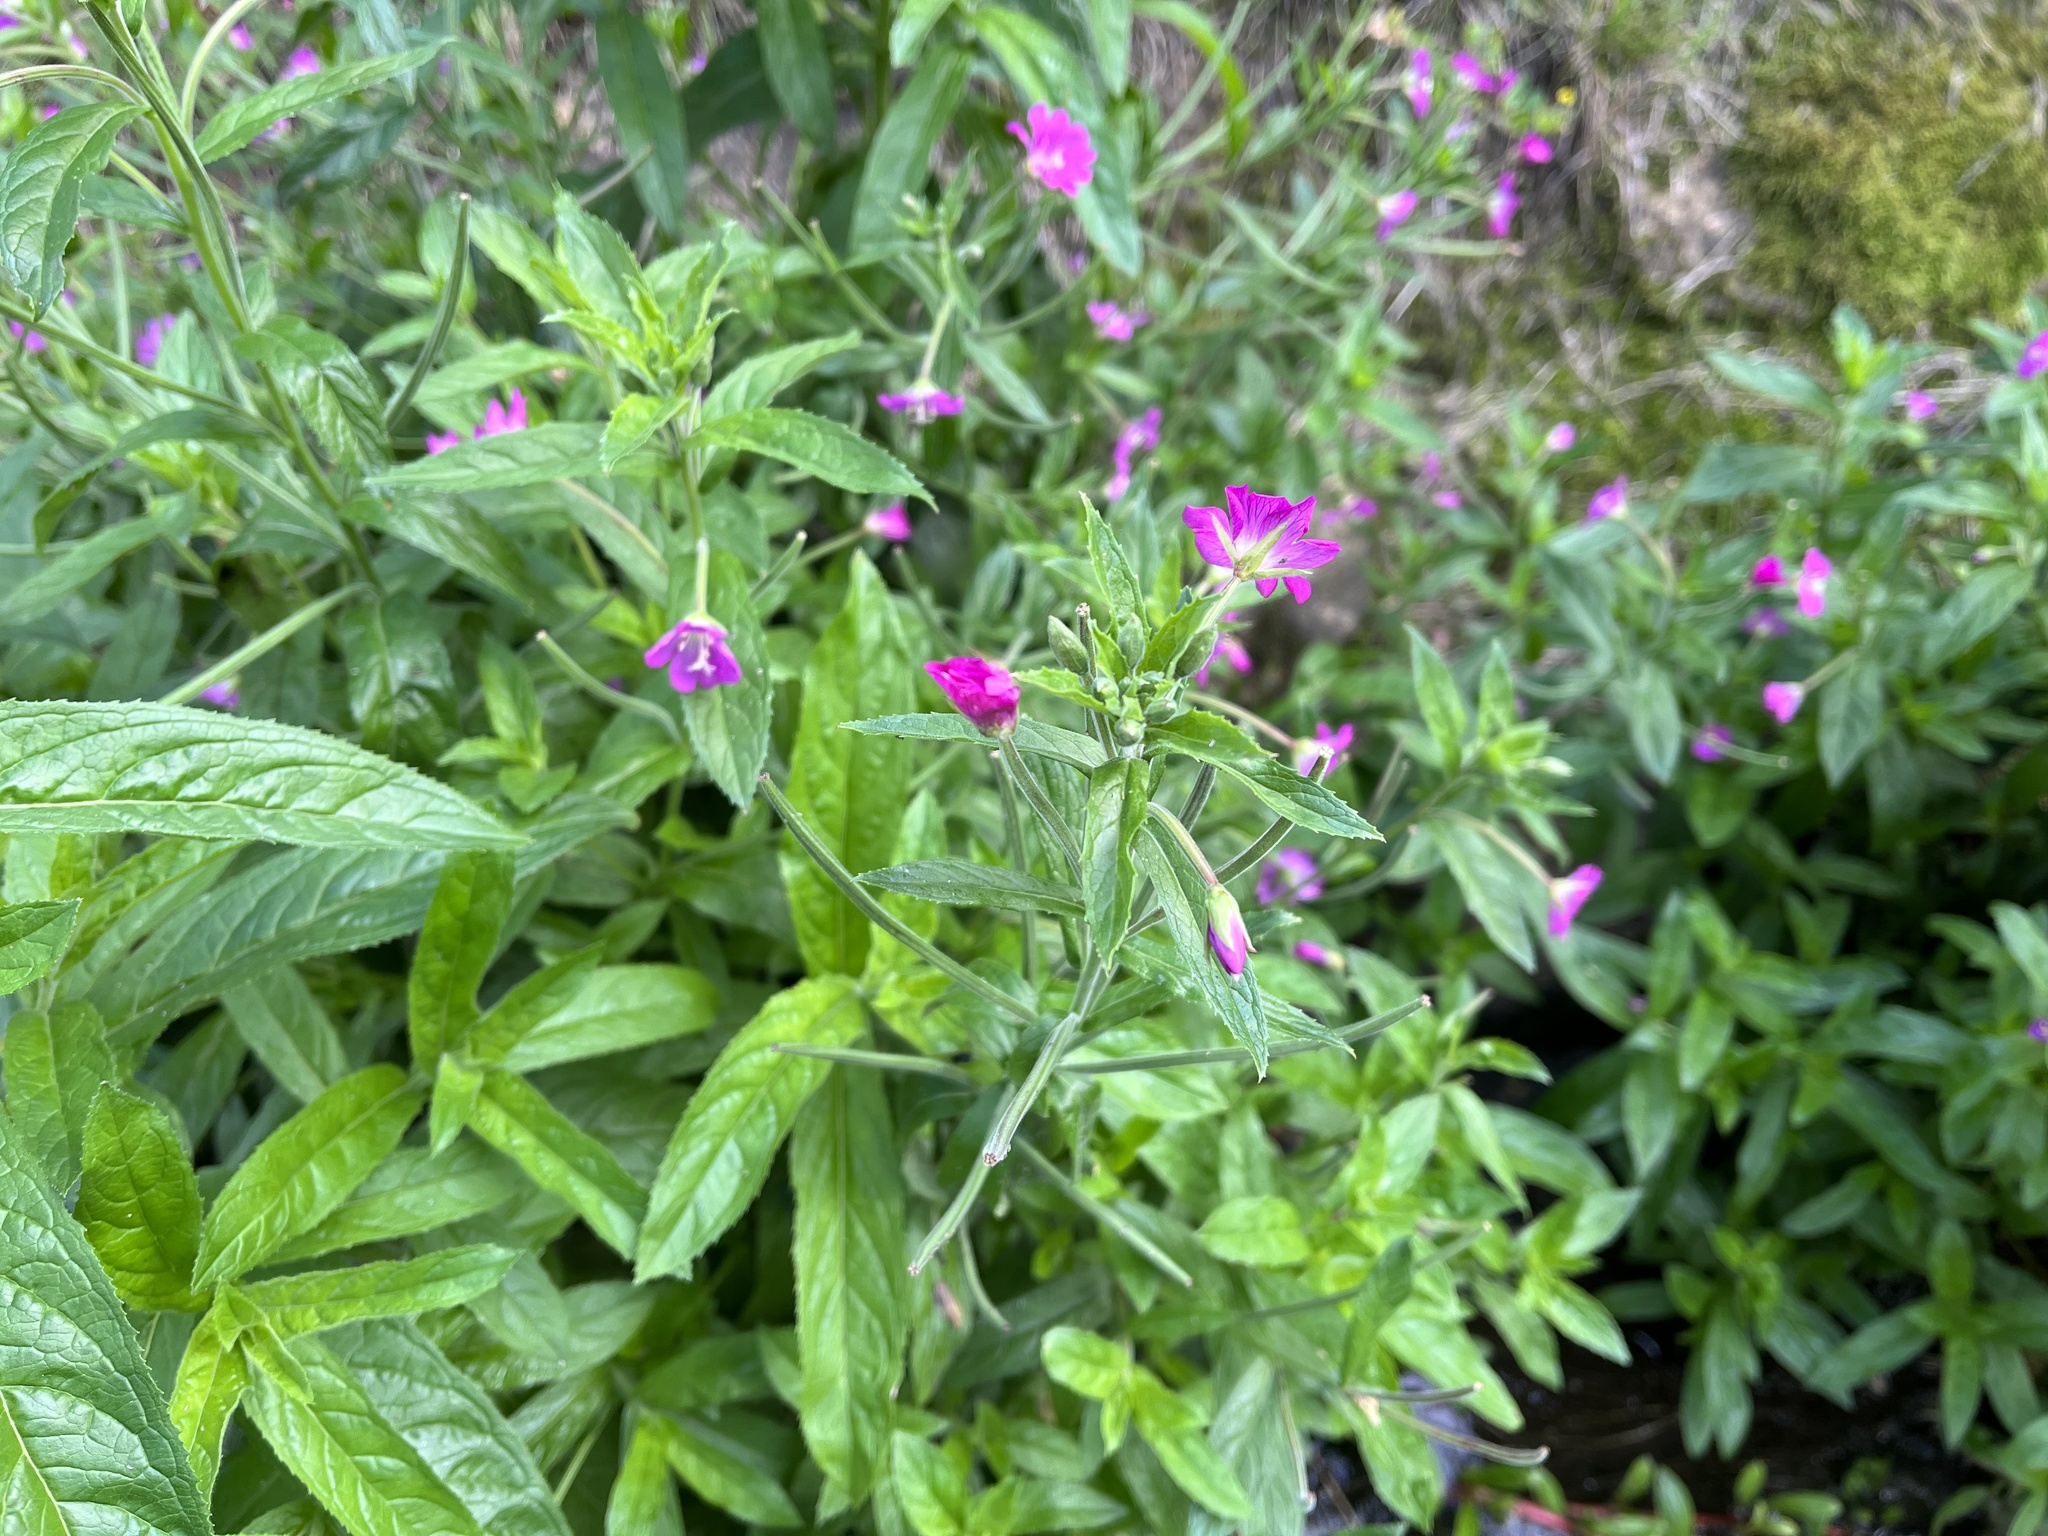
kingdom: Plantae
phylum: Tracheophyta
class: Magnoliopsida
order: Myrtales
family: Onagraceae
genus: Epilobium
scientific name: Epilobium hirsutum
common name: Great willowherb
